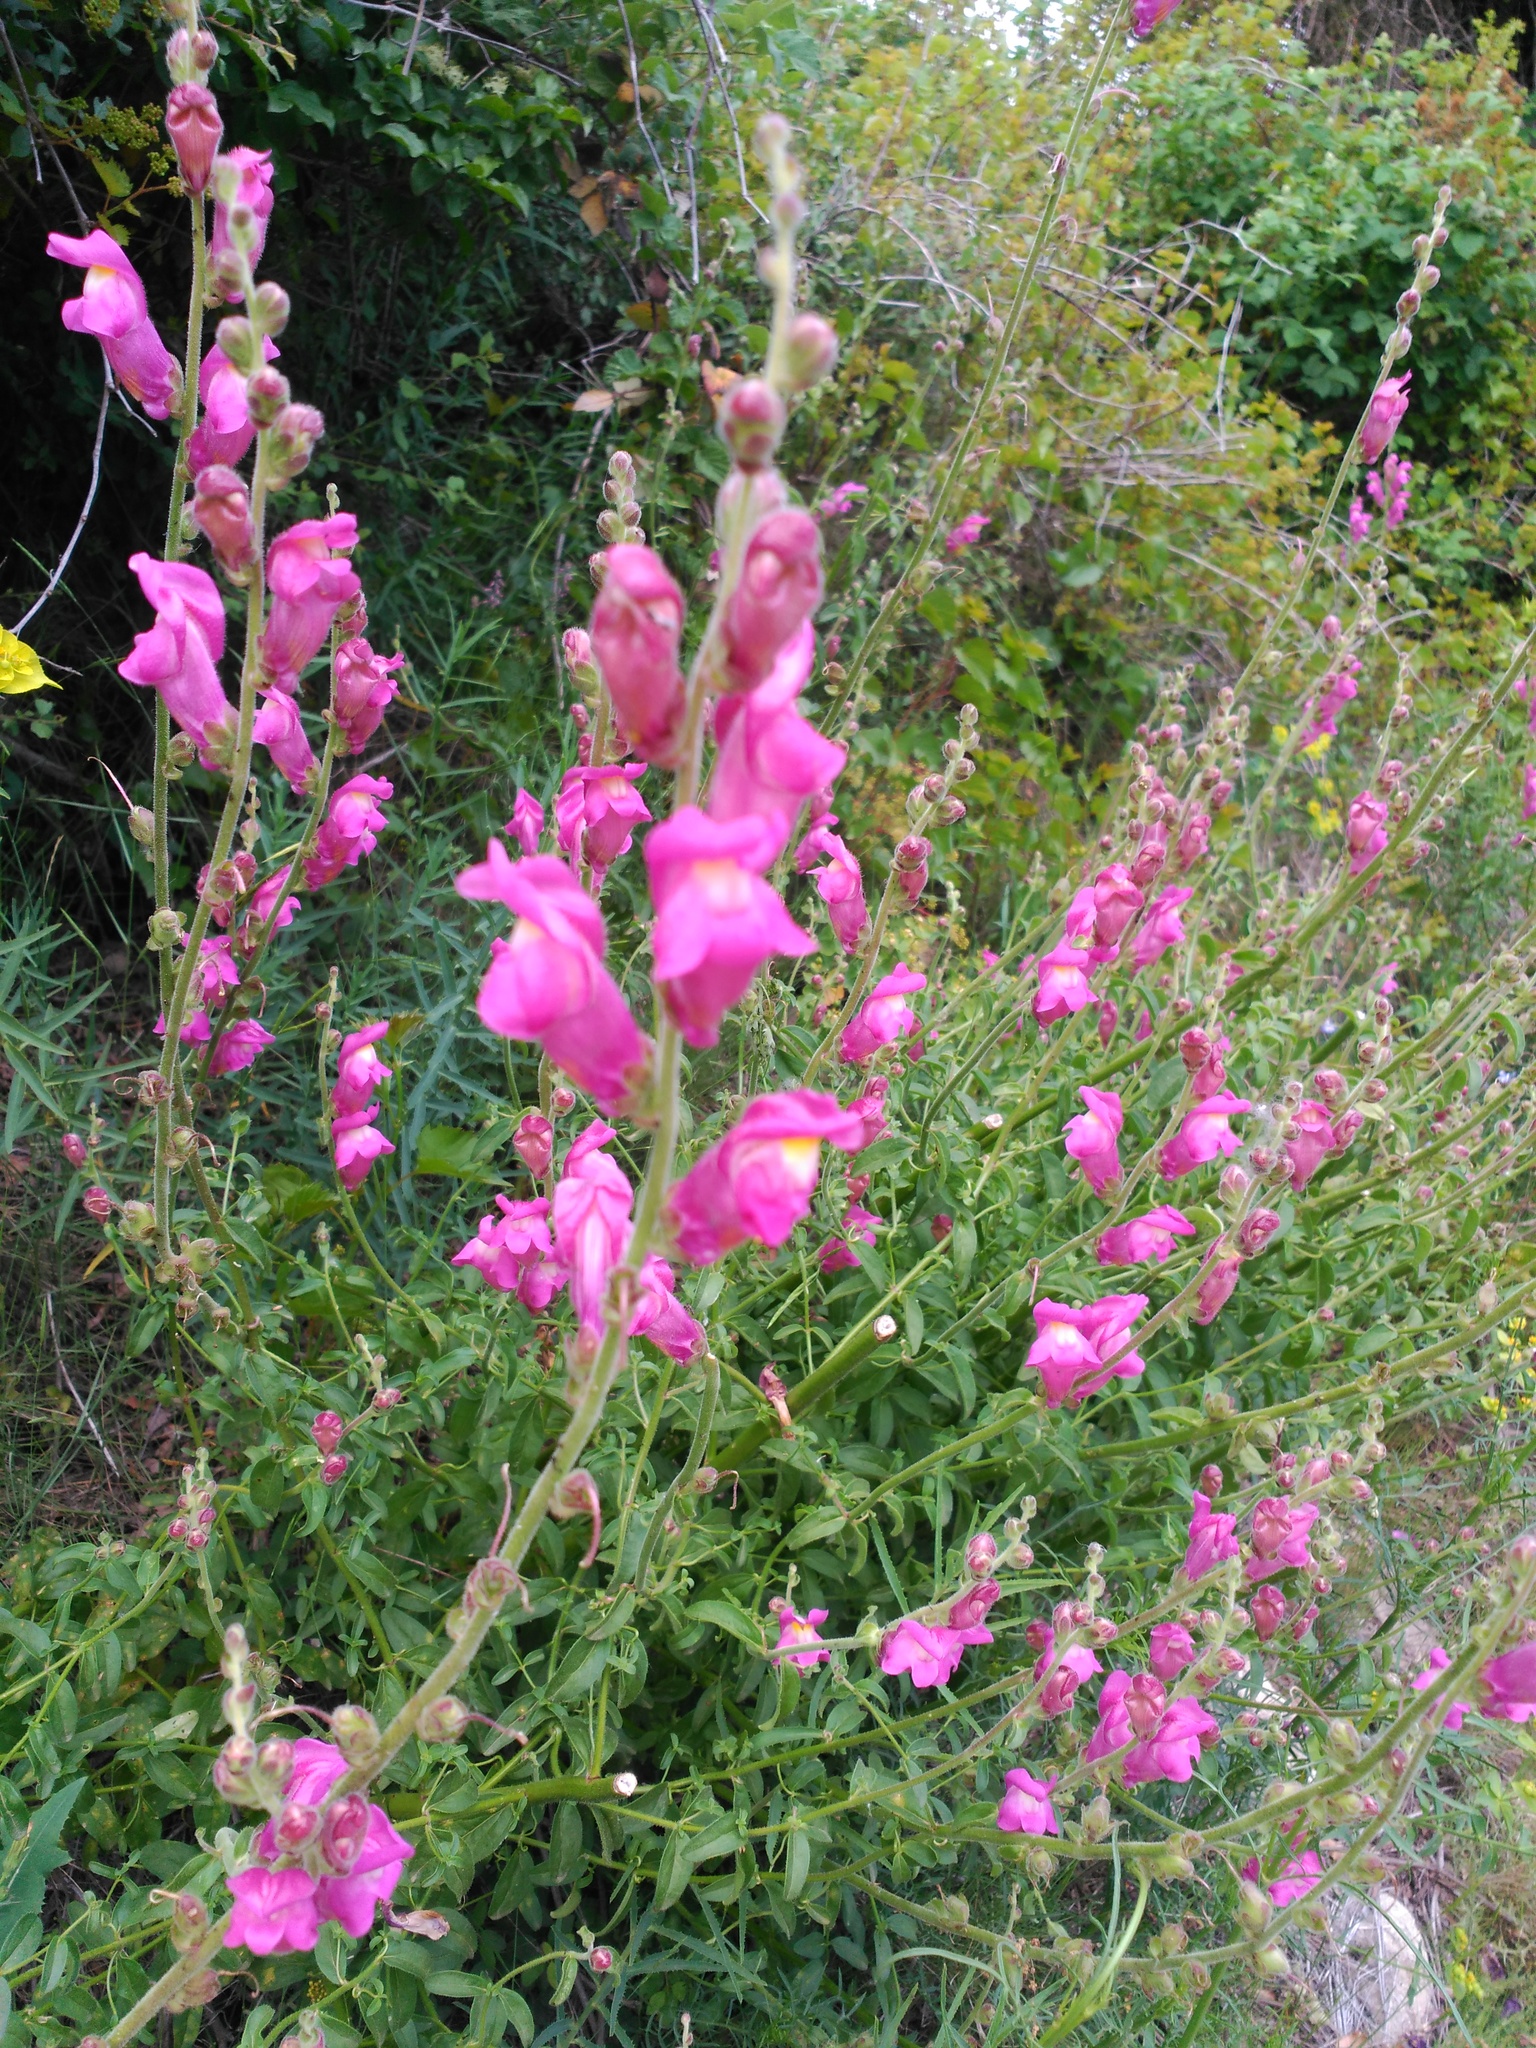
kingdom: Plantae
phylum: Tracheophyta
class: Magnoliopsida
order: Lamiales
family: Plantaginaceae
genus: Antirrhinum
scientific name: Antirrhinum majus
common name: Snapdragon
